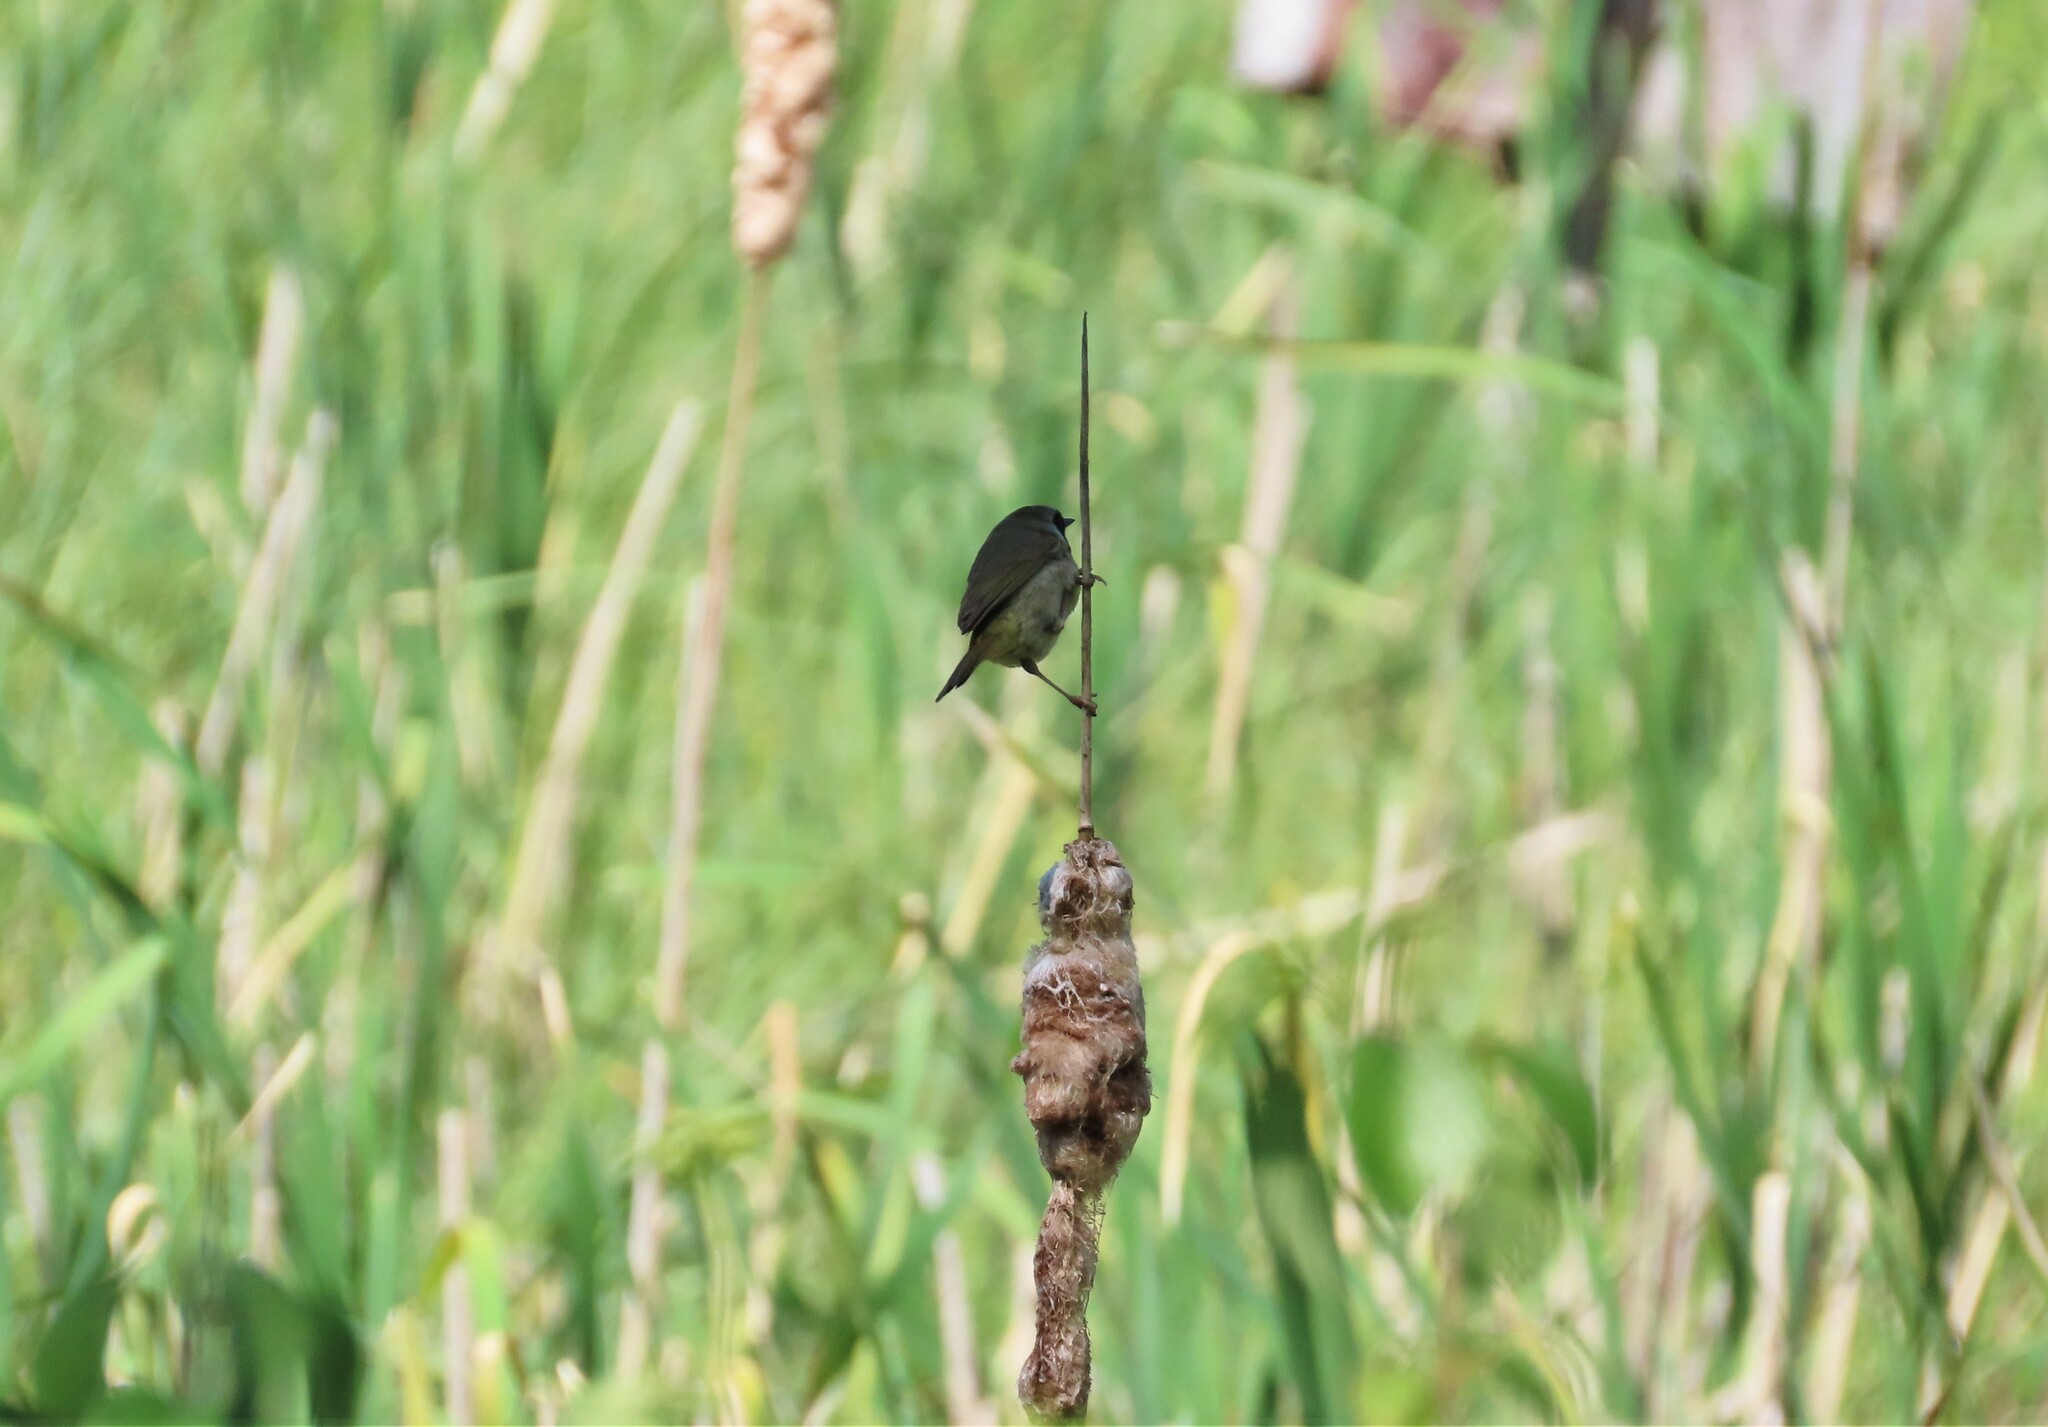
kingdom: Animalia
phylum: Chordata
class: Aves
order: Passeriformes
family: Parulidae
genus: Geothlypis
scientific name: Geothlypis trichas
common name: Common yellowthroat
